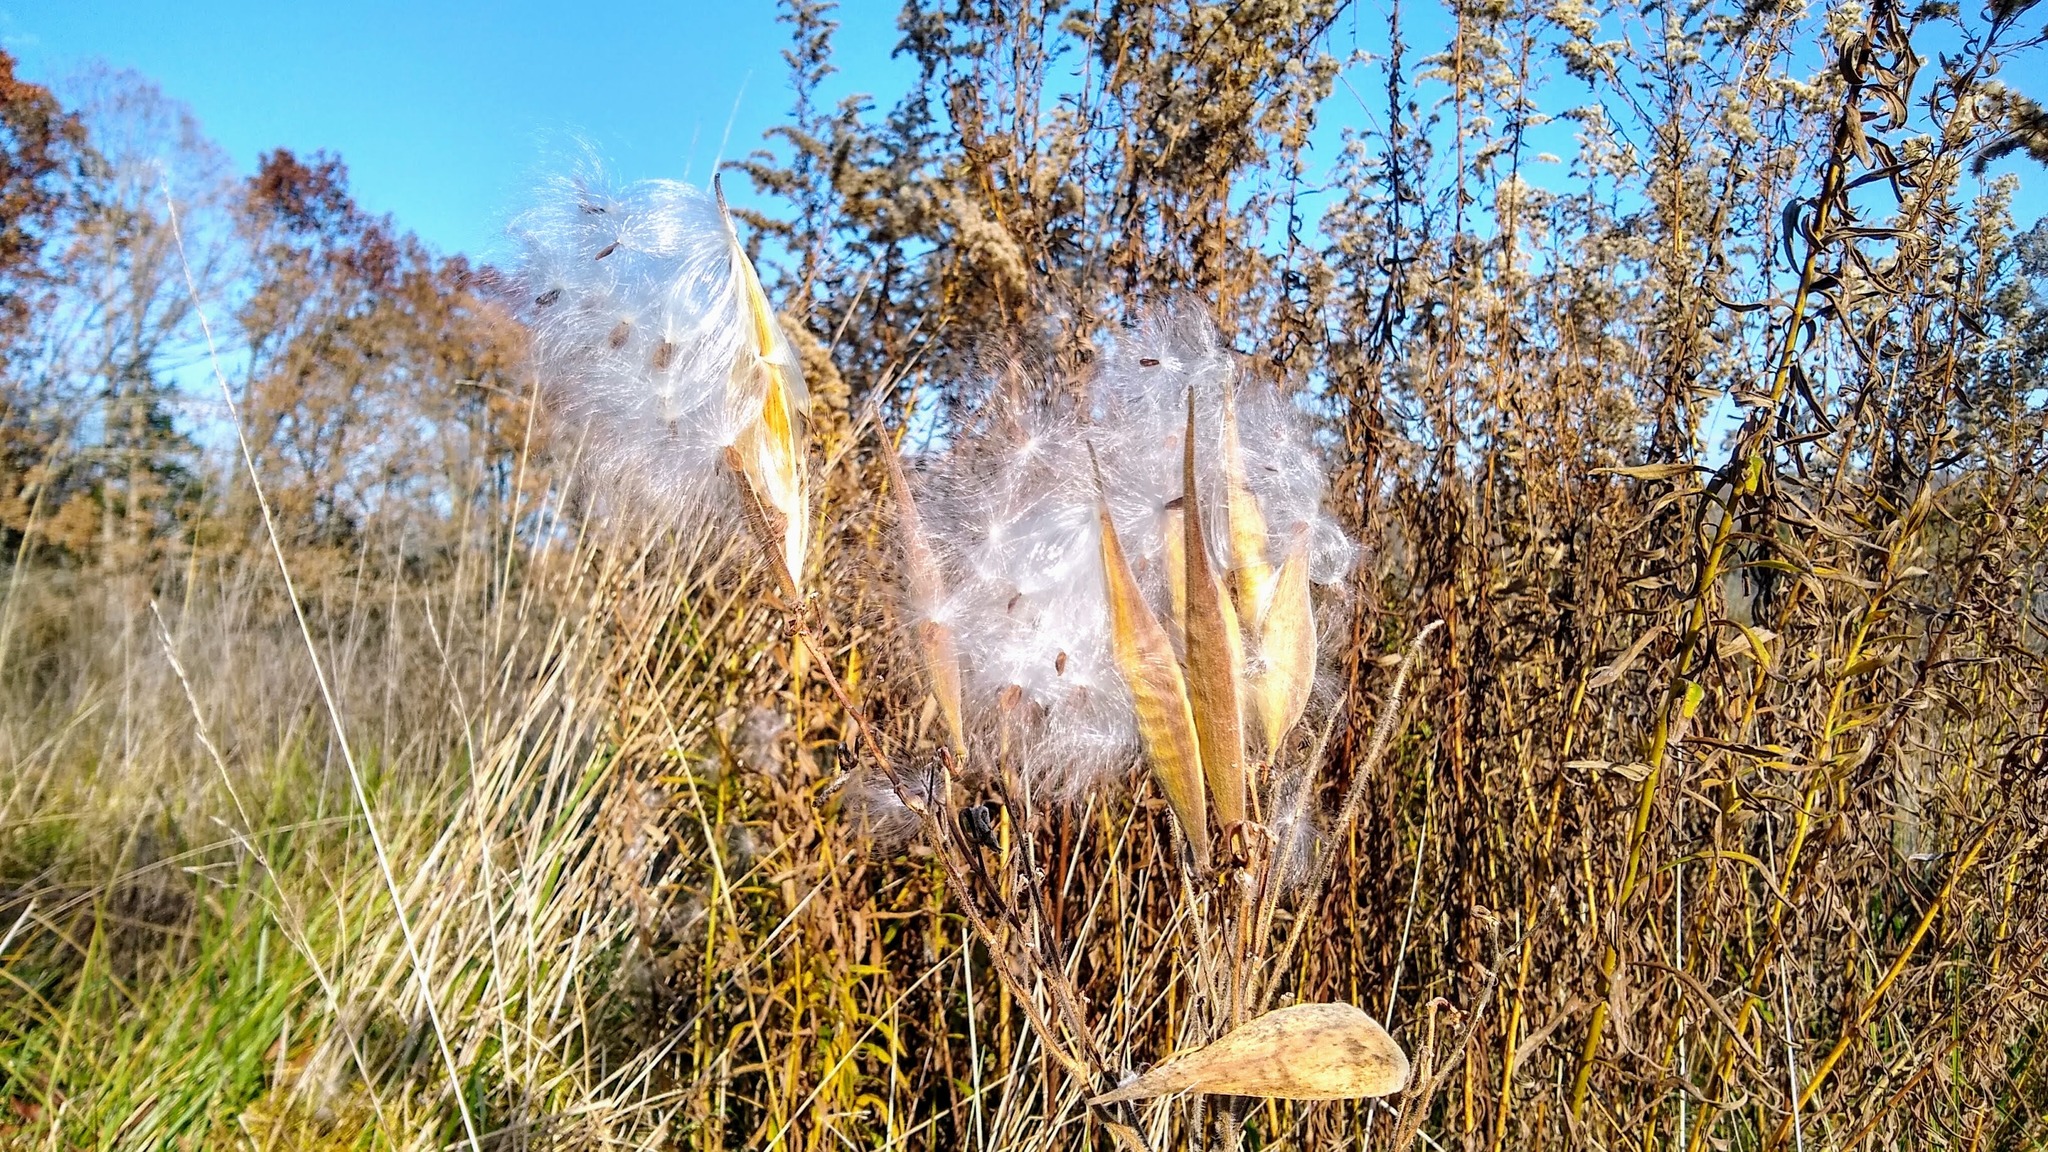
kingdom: Plantae
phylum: Tracheophyta
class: Magnoliopsida
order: Gentianales
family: Apocynaceae
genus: Asclepias
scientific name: Asclepias tuberosa
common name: Butterfly milkweed
